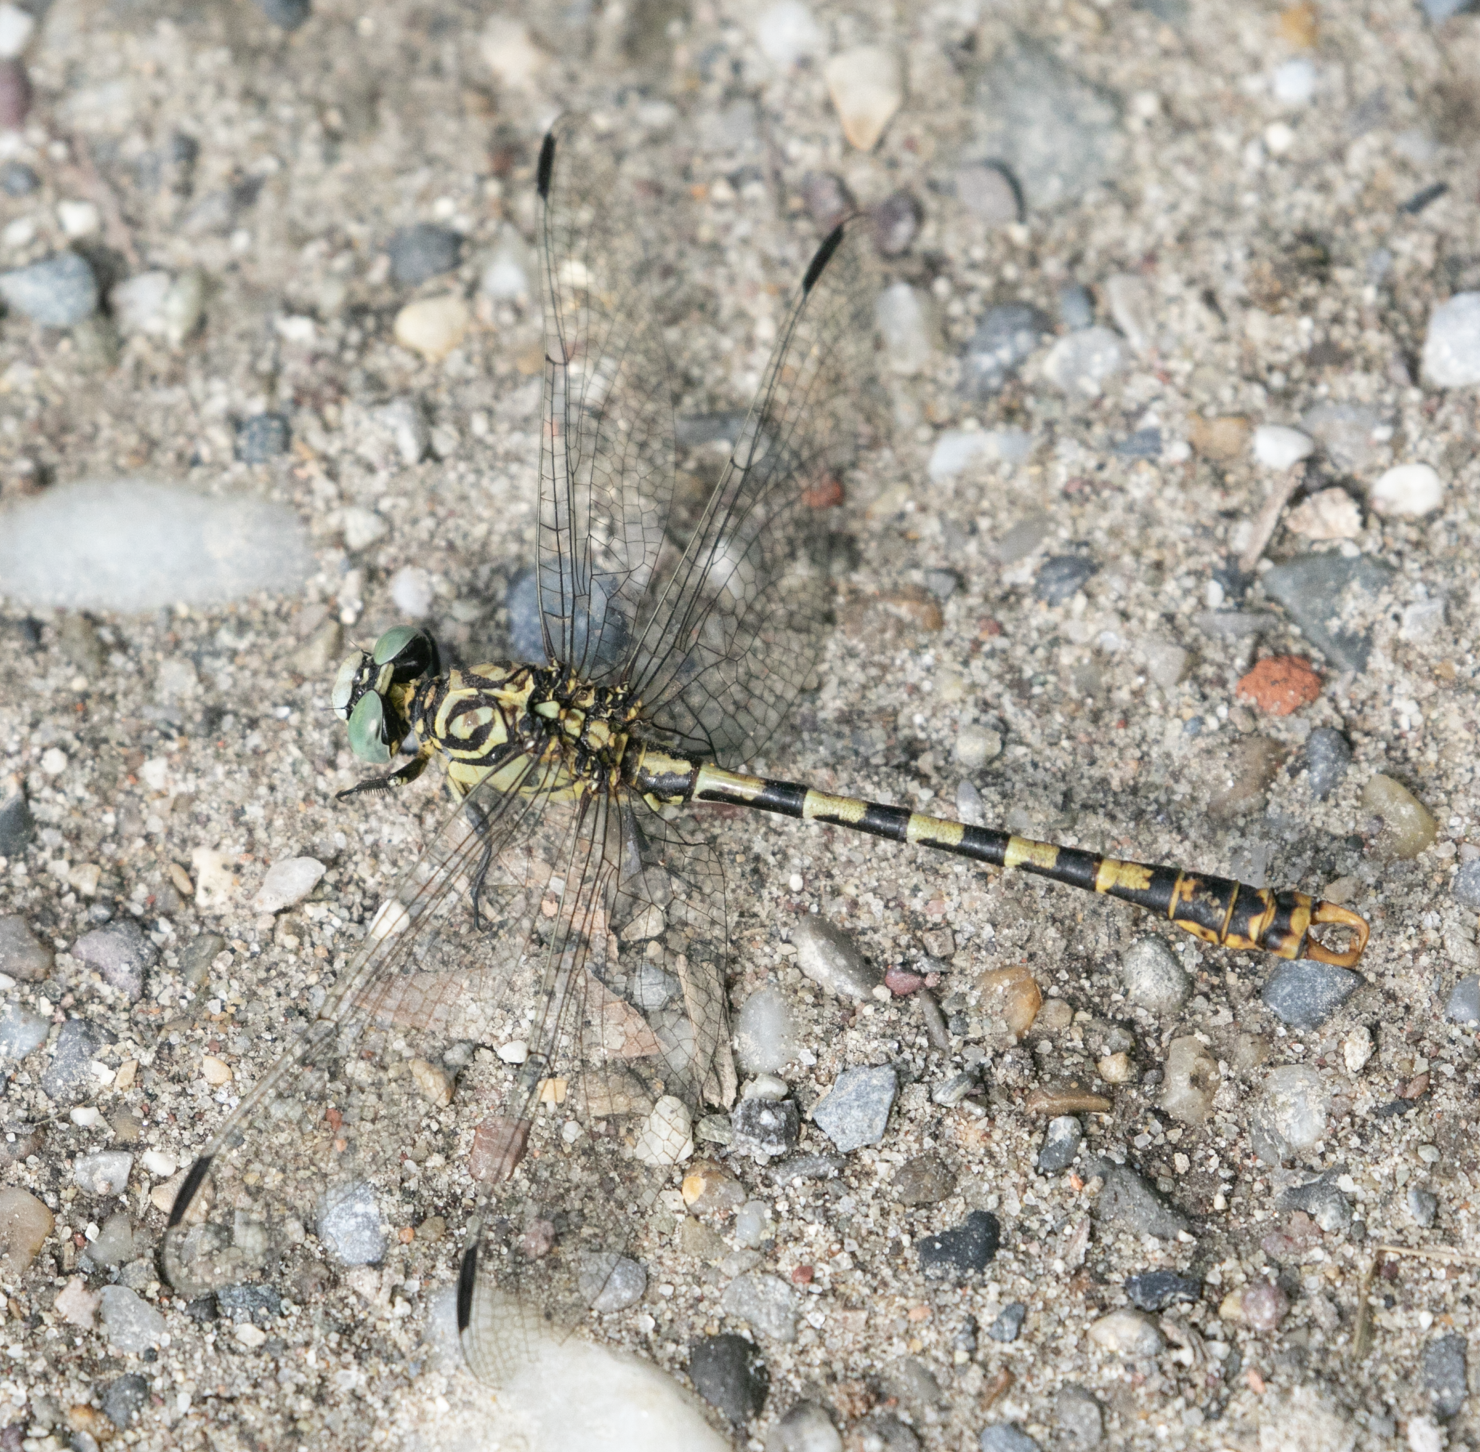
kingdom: Animalia
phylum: Arthropoda
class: Insecta
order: Odonata
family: Gomphidae
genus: Onychogomphus
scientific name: Onychogomphus forcipatus
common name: Small pincertail
